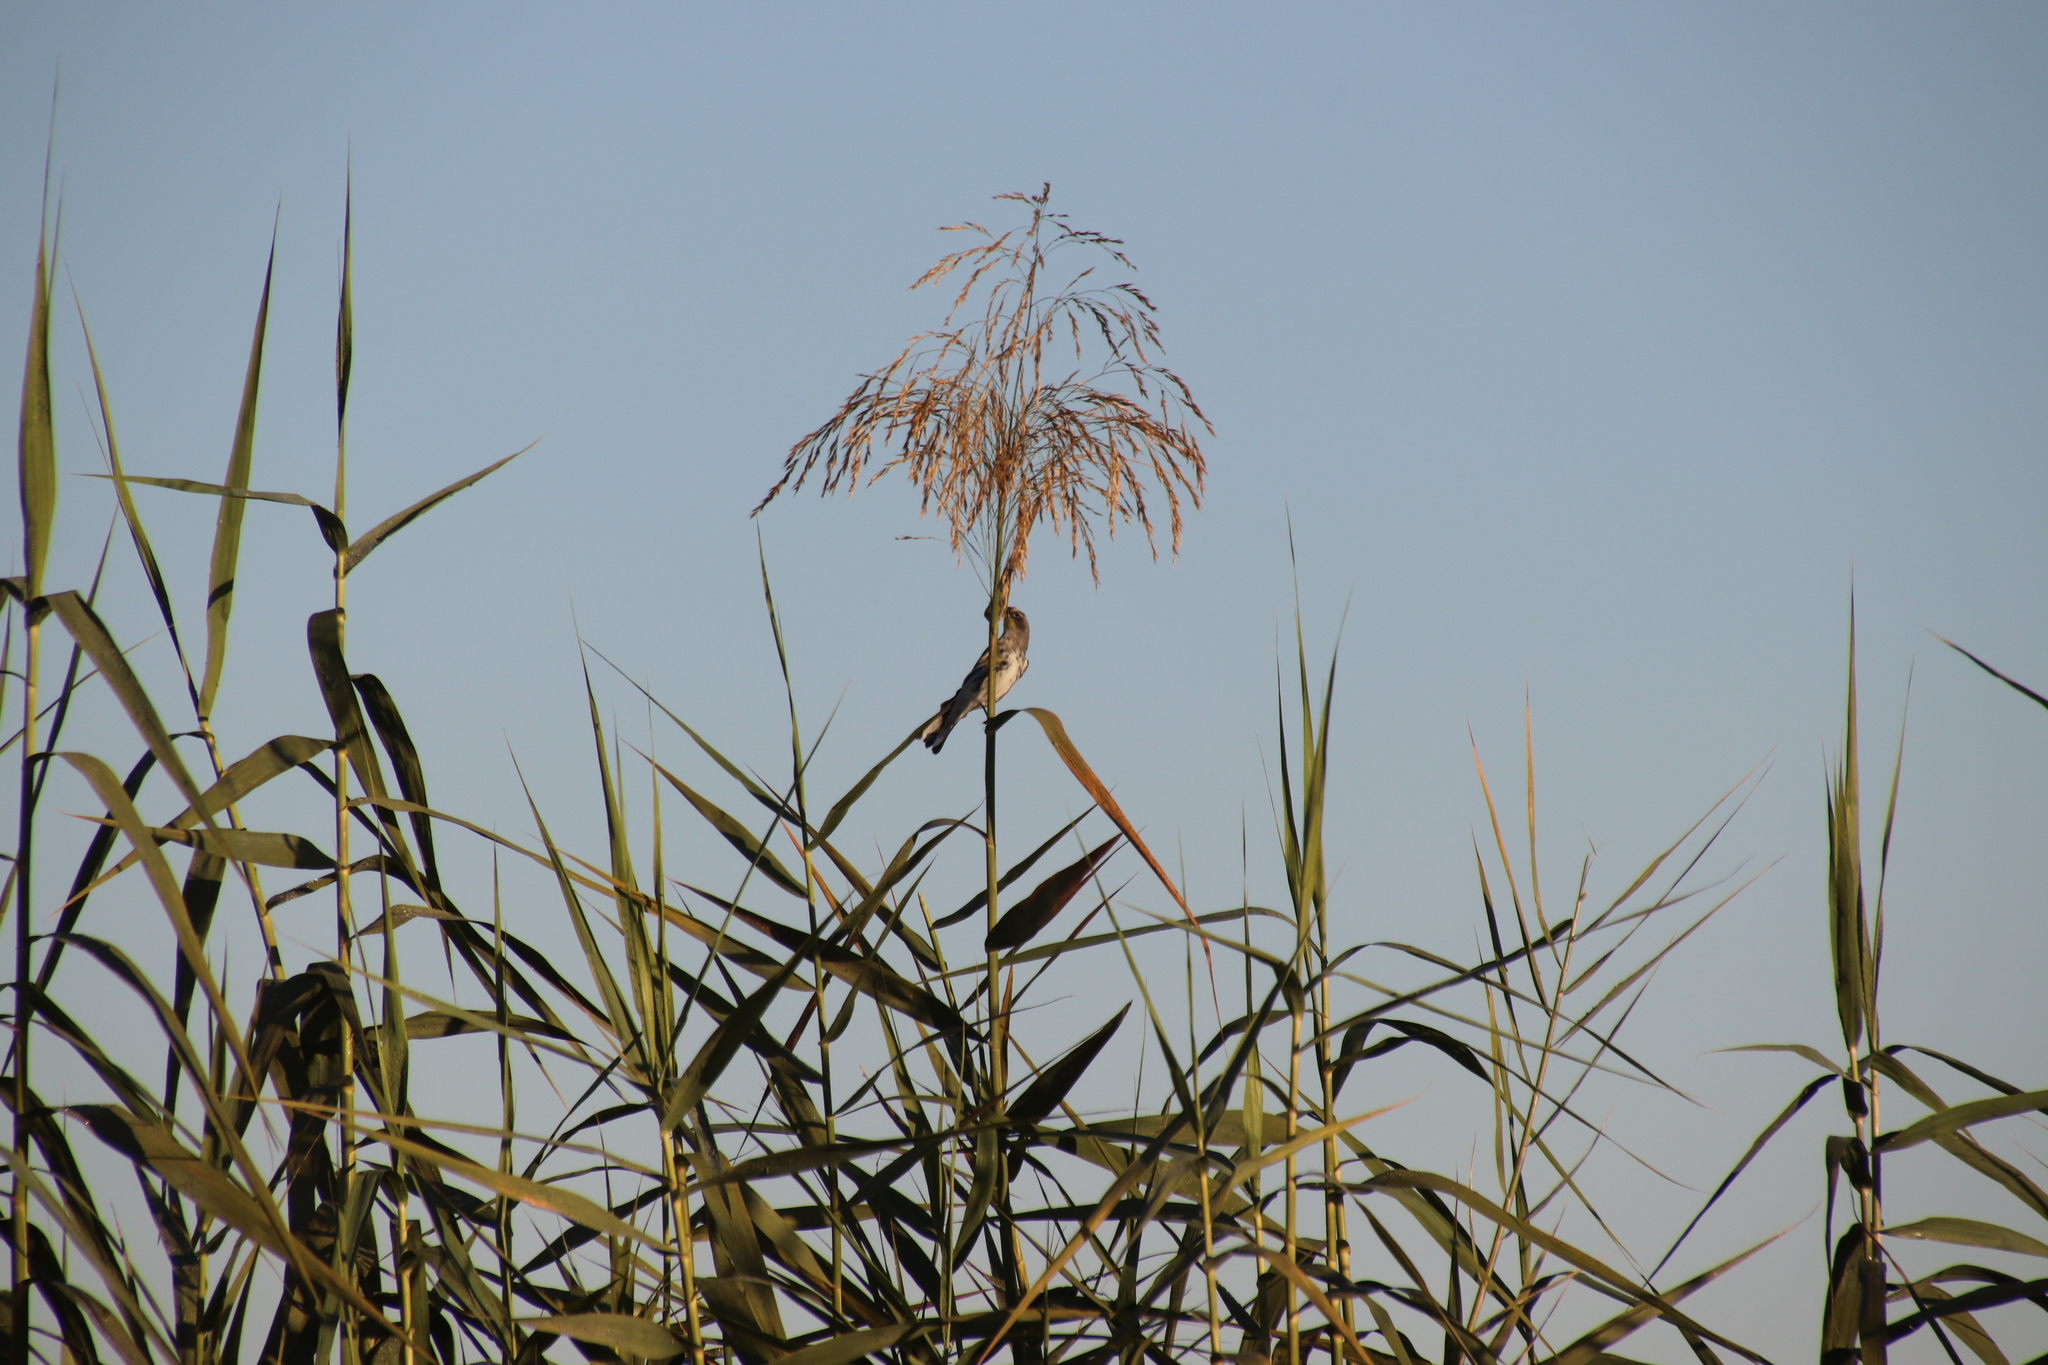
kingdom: Plantae
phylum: Tracheophyta
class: Liliopsida
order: Poales
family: Poaceae
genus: Phragmites
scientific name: Phragmites australis
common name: Common reed
